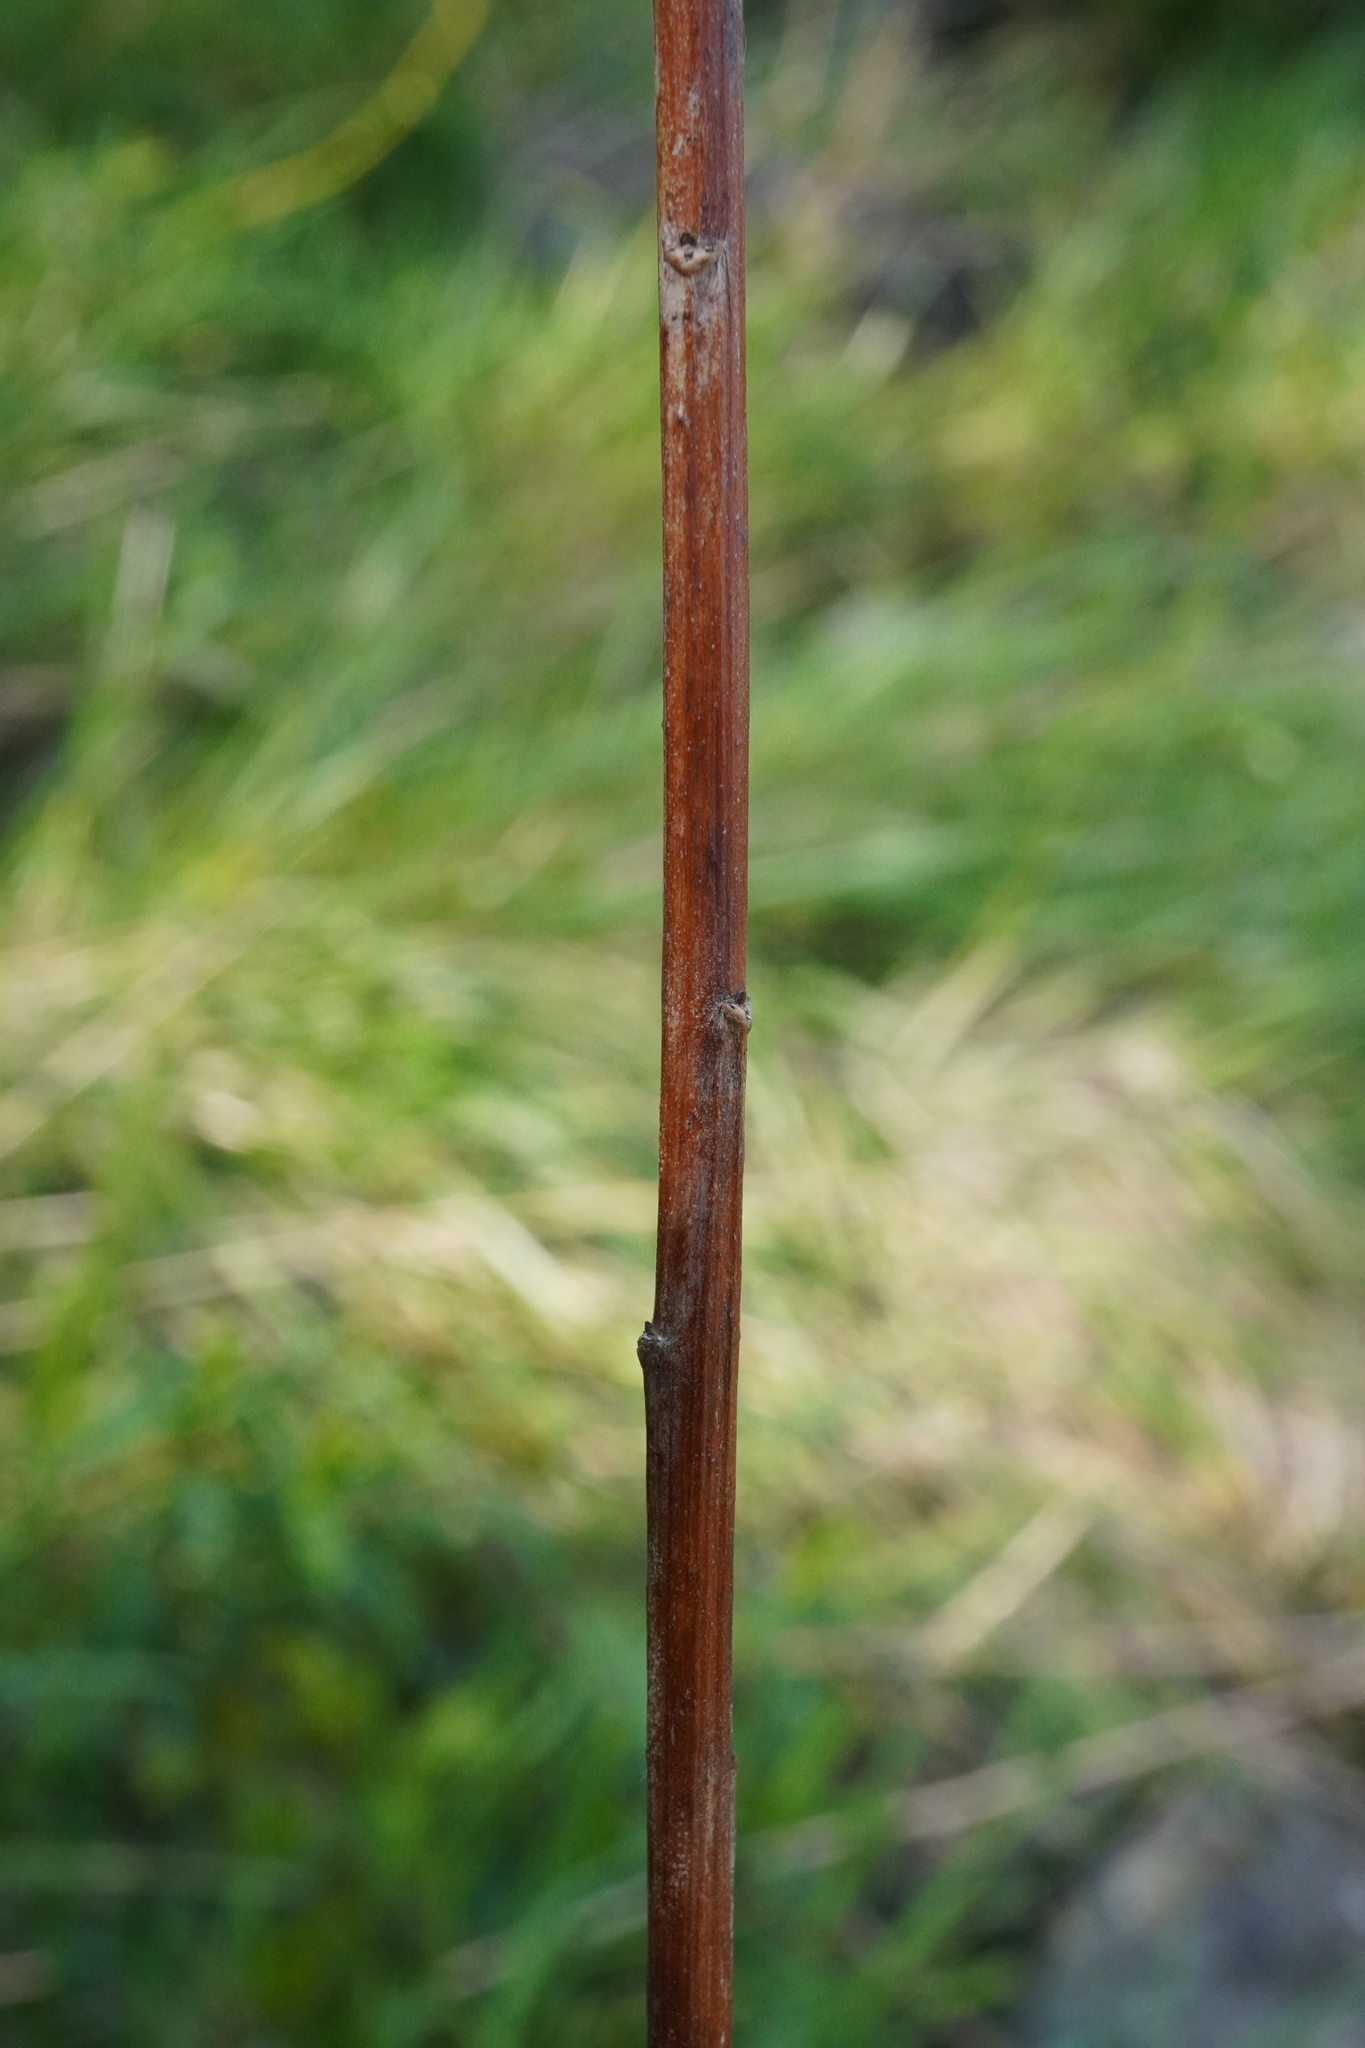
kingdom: Plantae
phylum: Tracheophyta
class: Magnoliopsida
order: Asterales
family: Asteraceae
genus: Solidago
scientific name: Solidago gigantea
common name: Giant goldenrod
